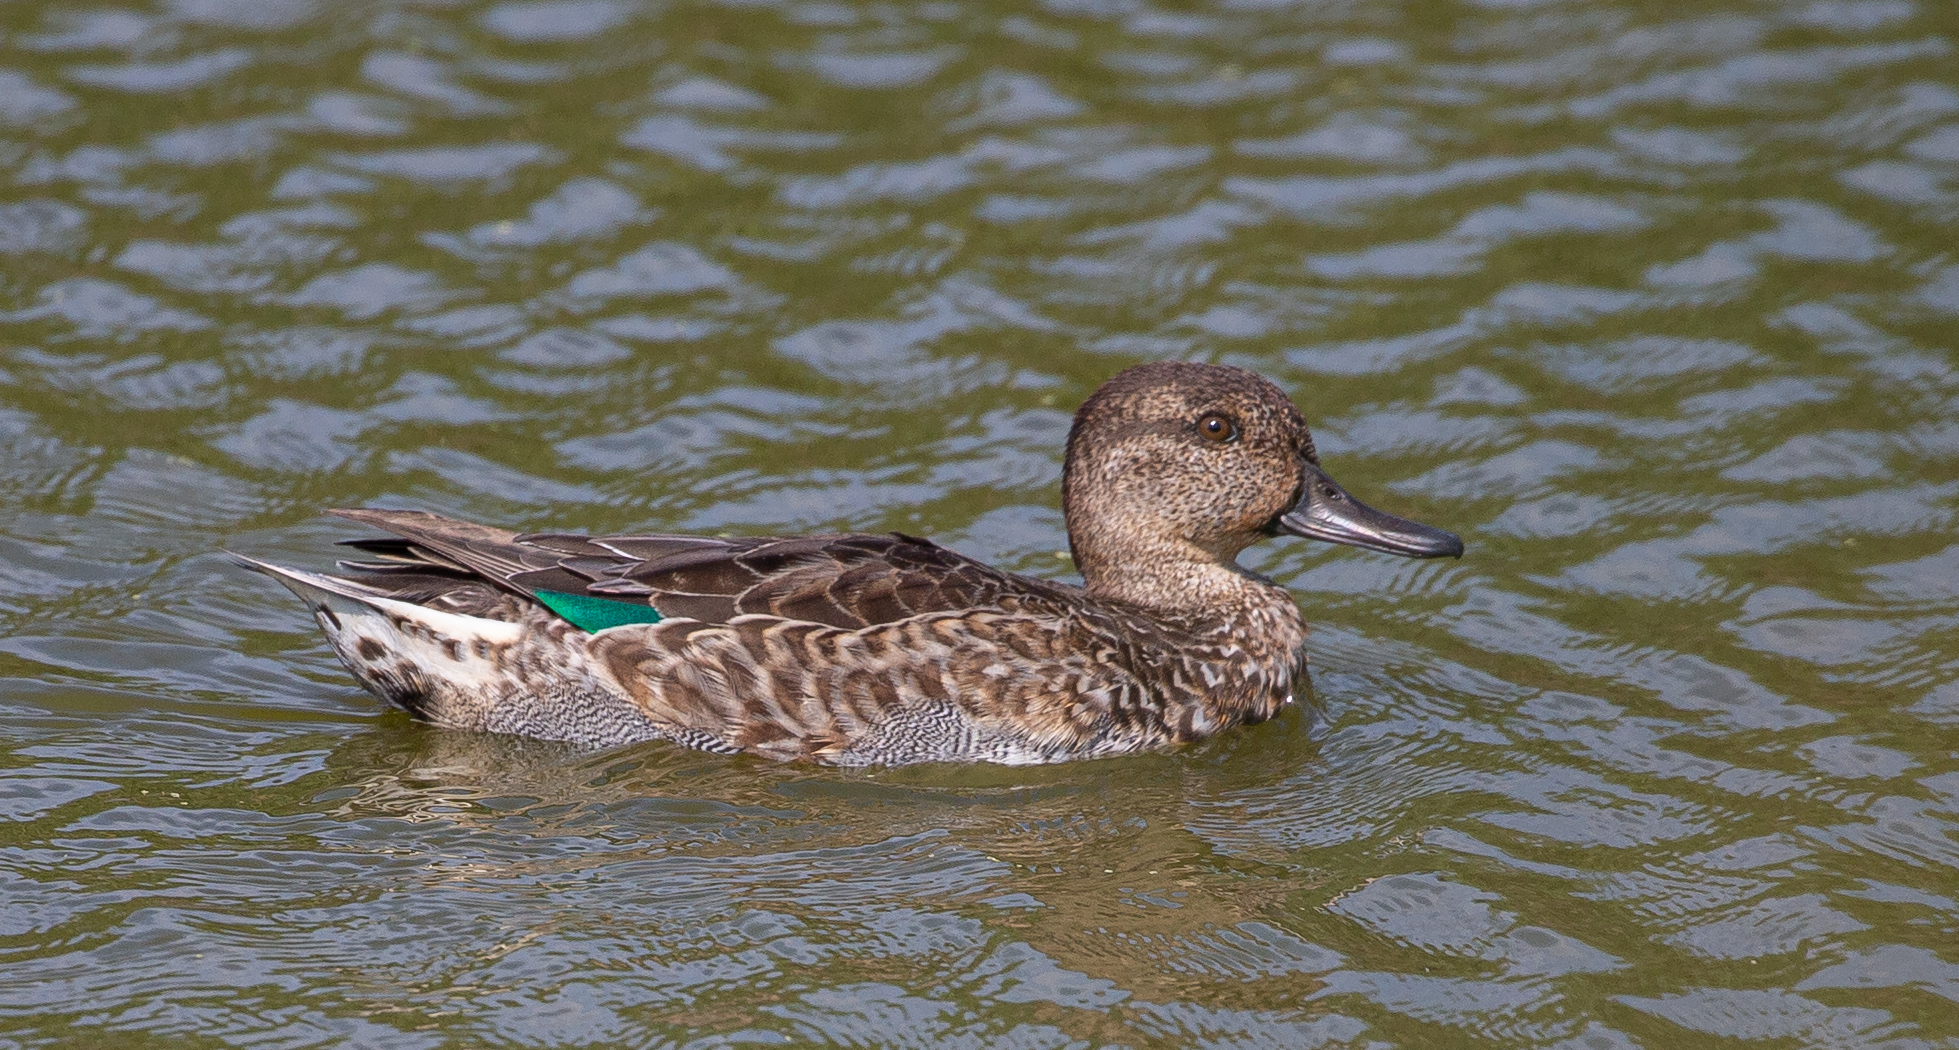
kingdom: Animalia
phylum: Chordata
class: Aves
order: Anseriformes
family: Anatidae
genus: Anas
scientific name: Anas crecca
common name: Eurasian teal
